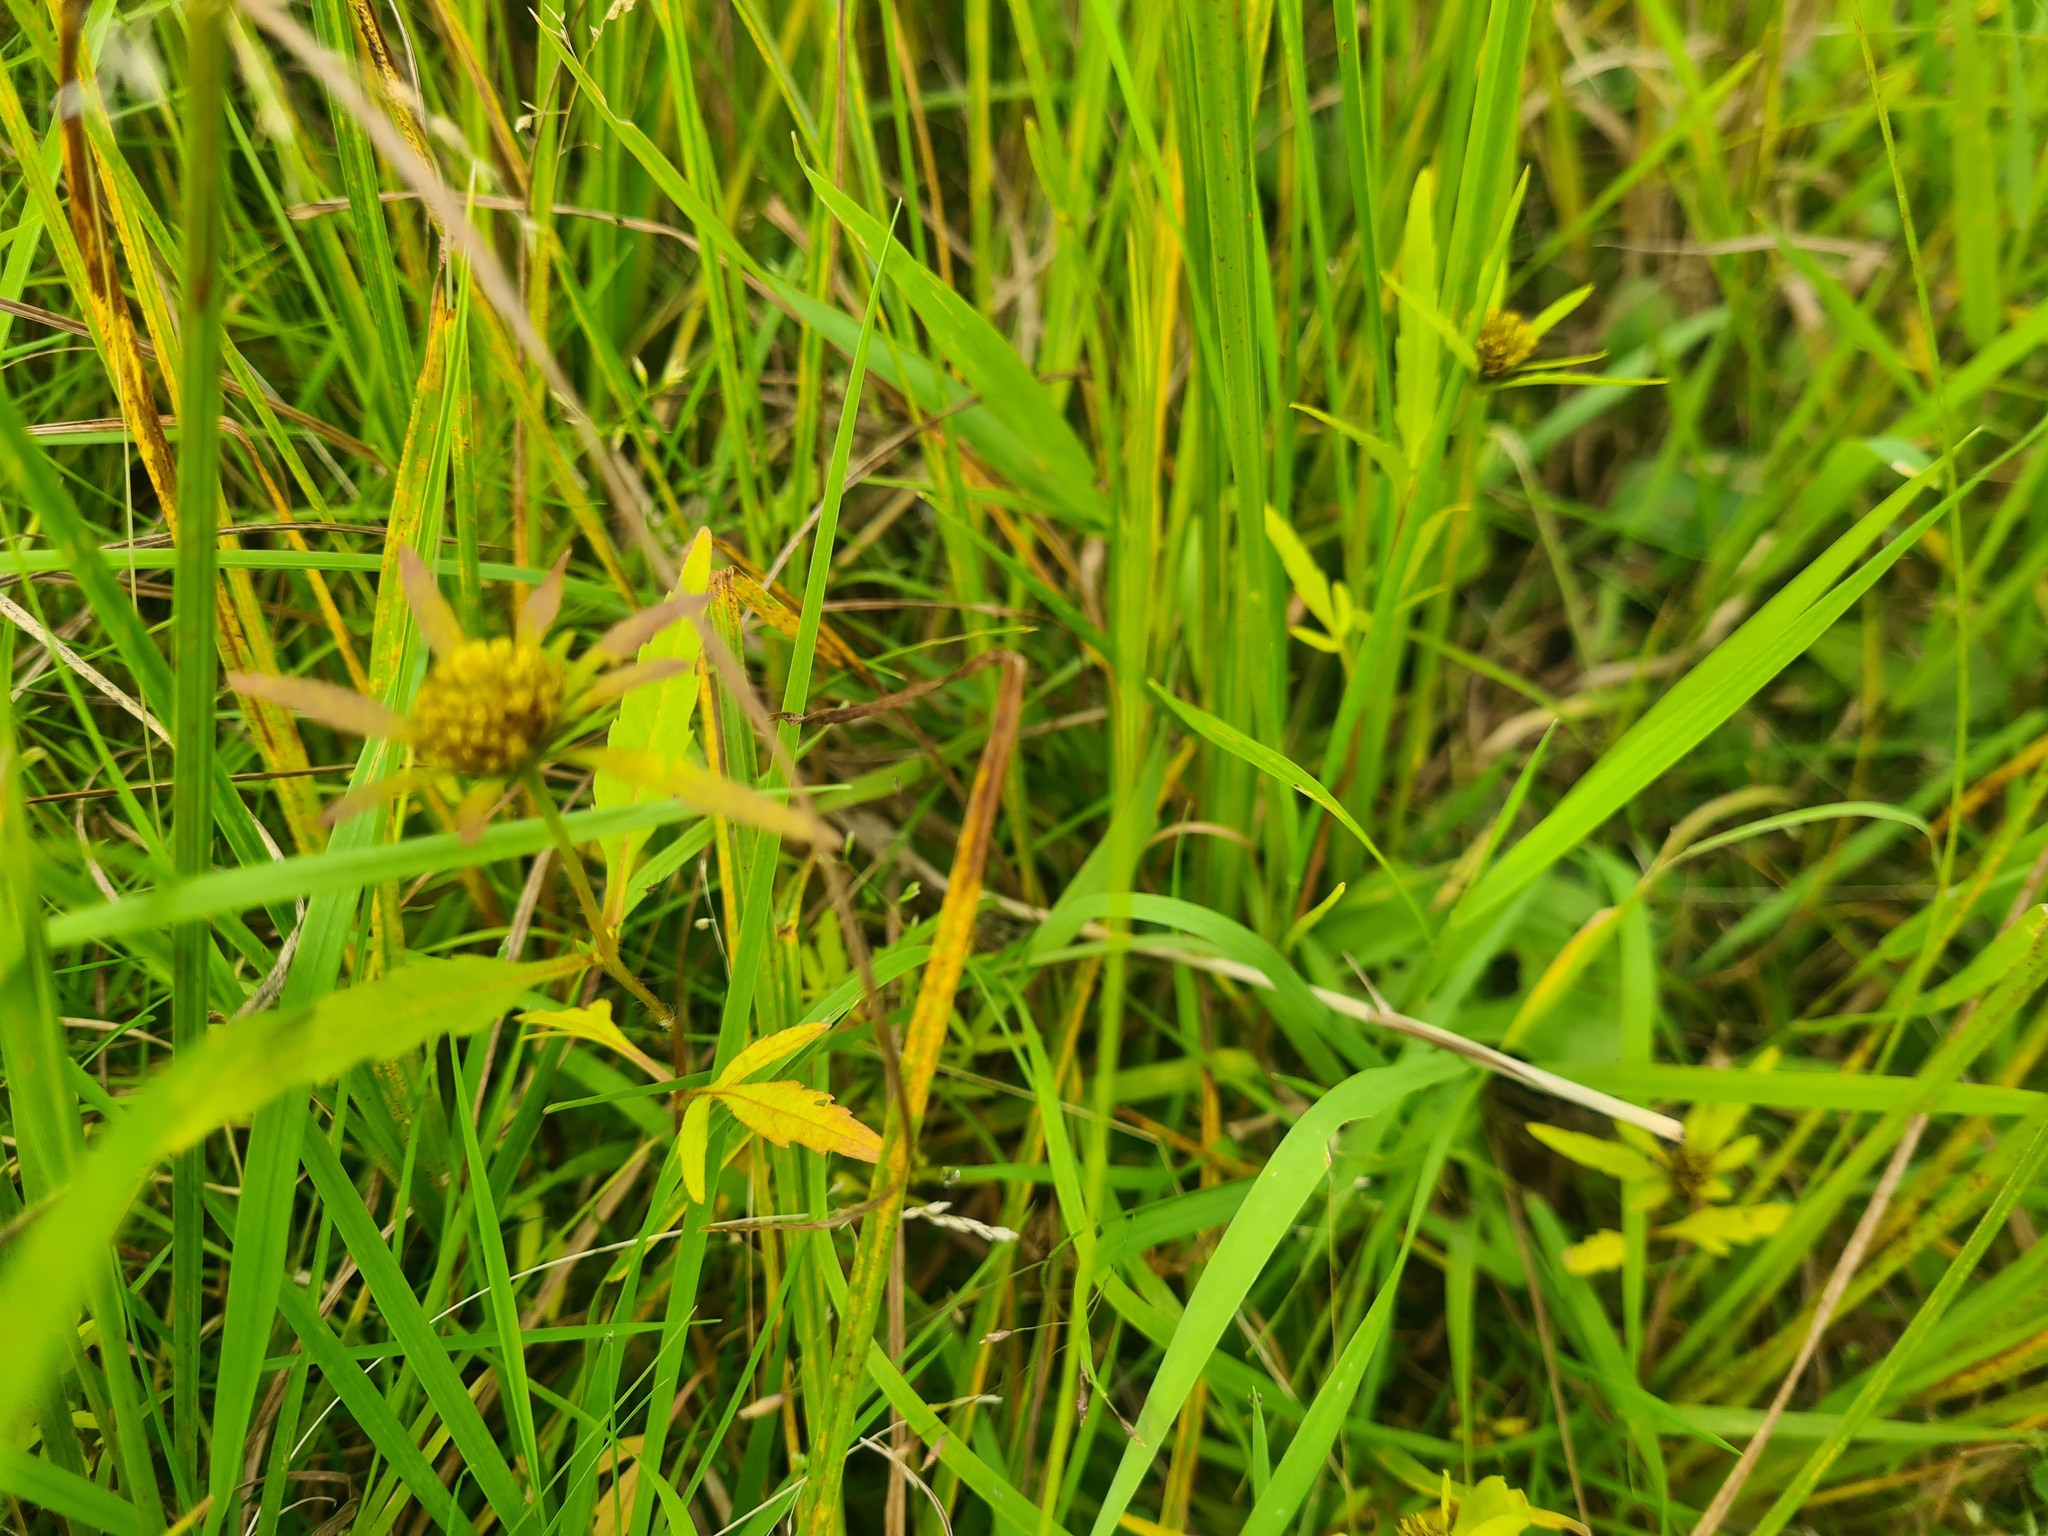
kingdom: Plantae
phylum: Tracheophyta
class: Magnoliopsida
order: Asterales
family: Asteraceae
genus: Bidens
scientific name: Bidens radiata
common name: Radiating bur-marigold
